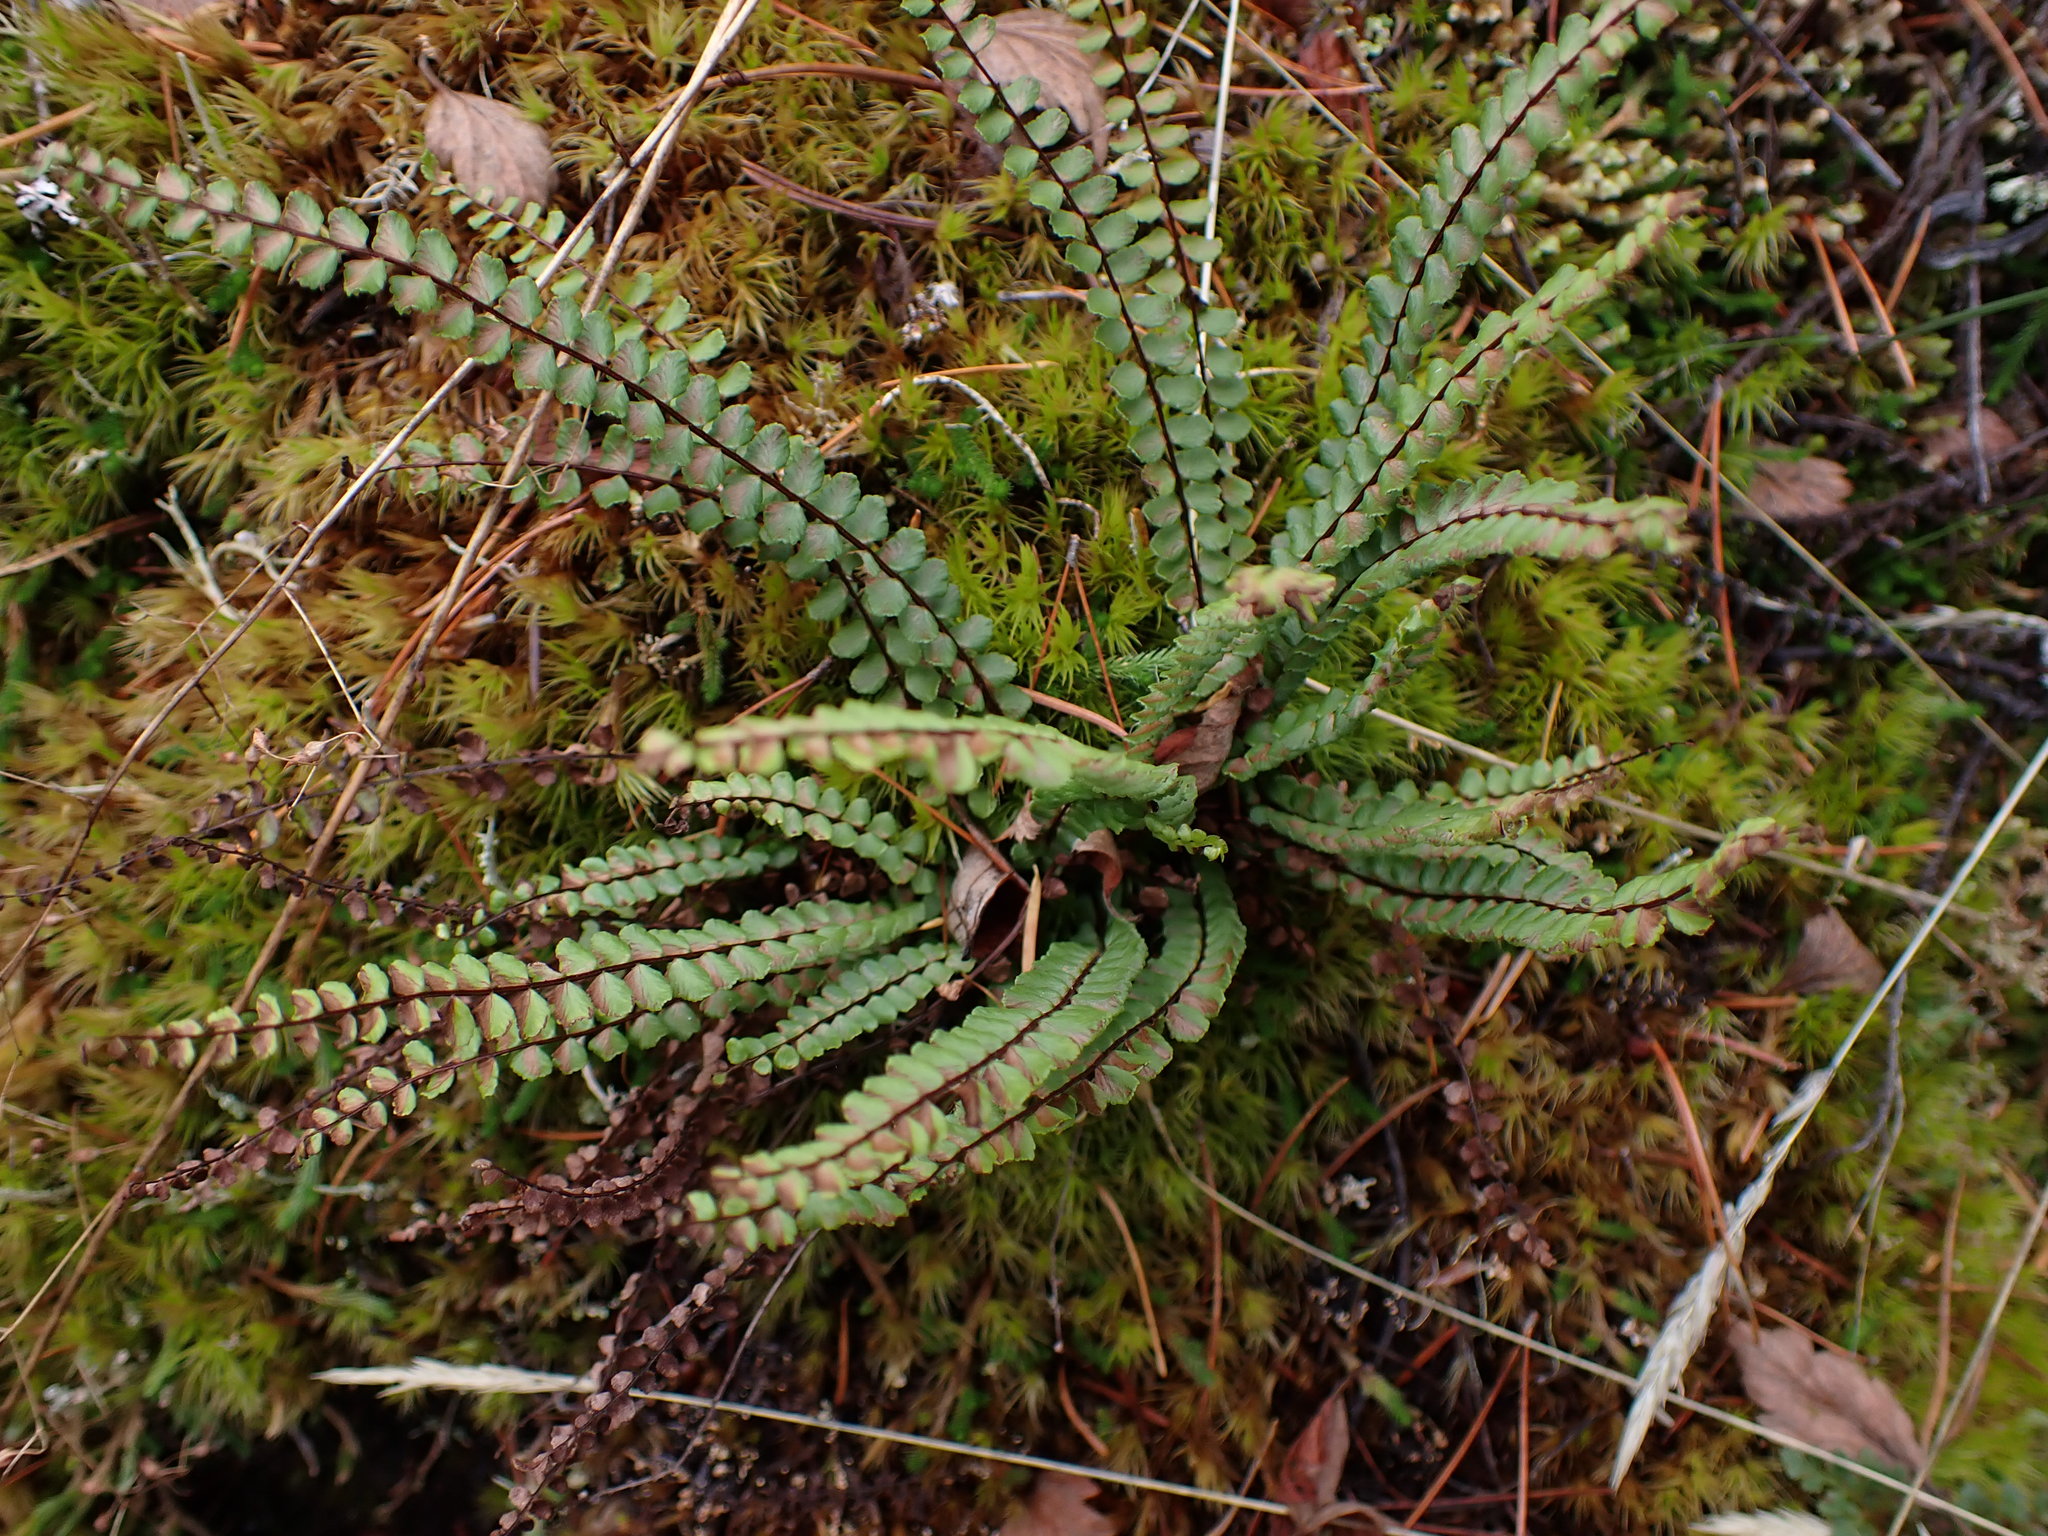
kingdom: Plantae
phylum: Tracheophyta
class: Polypodiopsida
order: Polypodiales
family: Aspleniaceae
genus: Asplenium
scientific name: Asplenium trichomanes
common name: Maidenhair spleenwort
